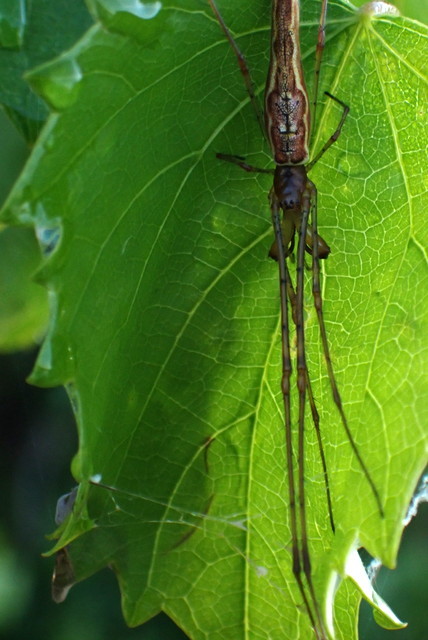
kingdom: Animalia
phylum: Arthropoda
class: Arachnida
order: Araneae
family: Tetragnathidae
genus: Tetragnatha
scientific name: Tetragnatha
